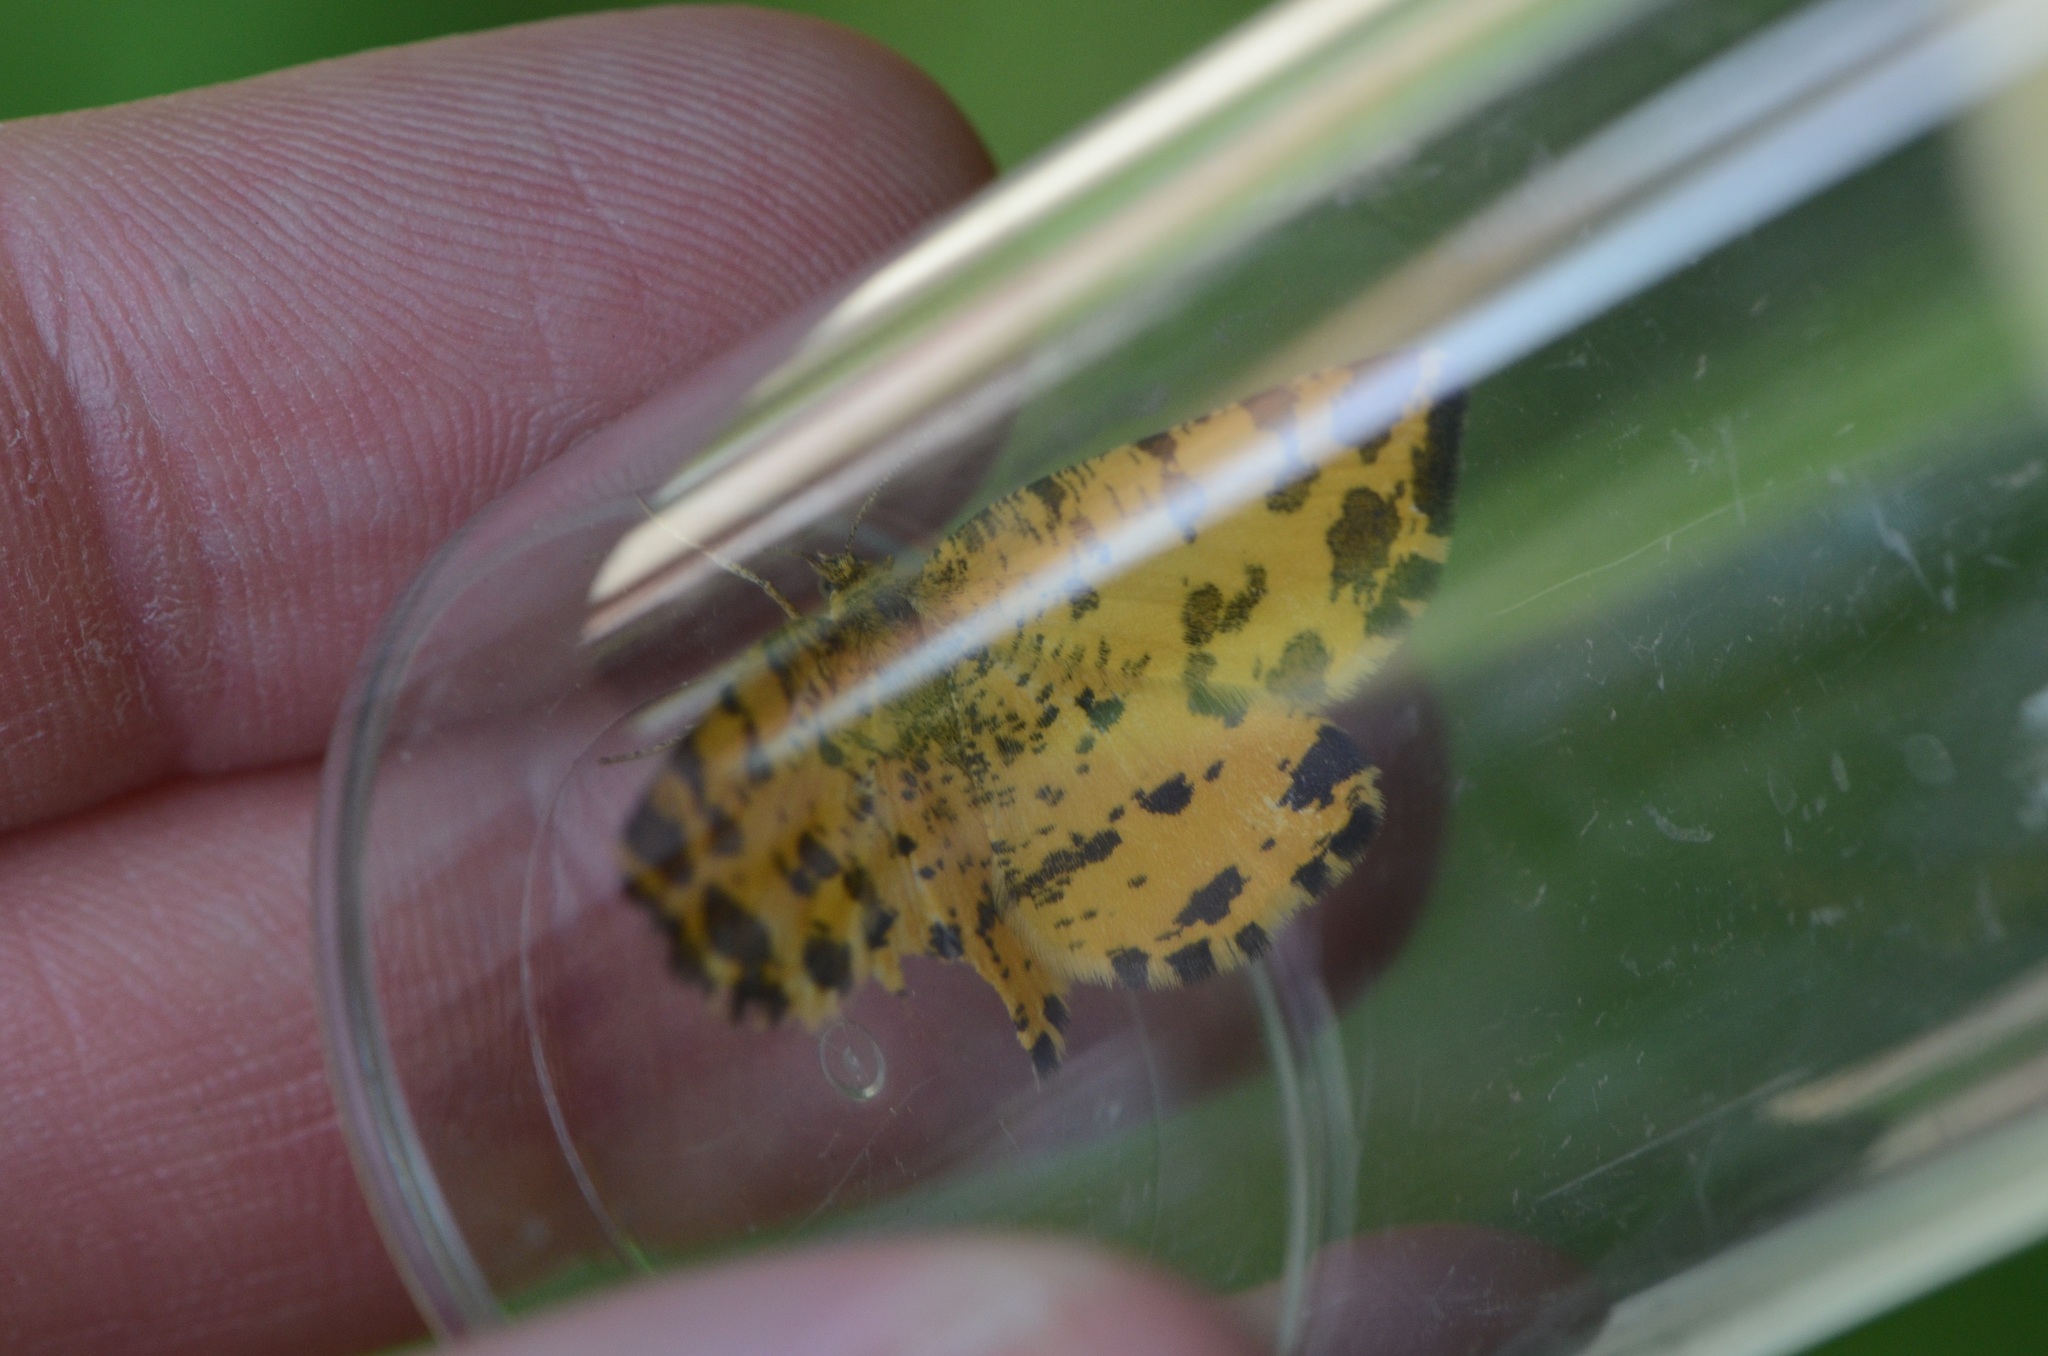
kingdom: Animalia
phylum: Arthropoda
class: Insecta
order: Lepidoptera
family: Geometridae
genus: Pseudopanthera
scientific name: Pseudopanthera macularia
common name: Speckled yellow
